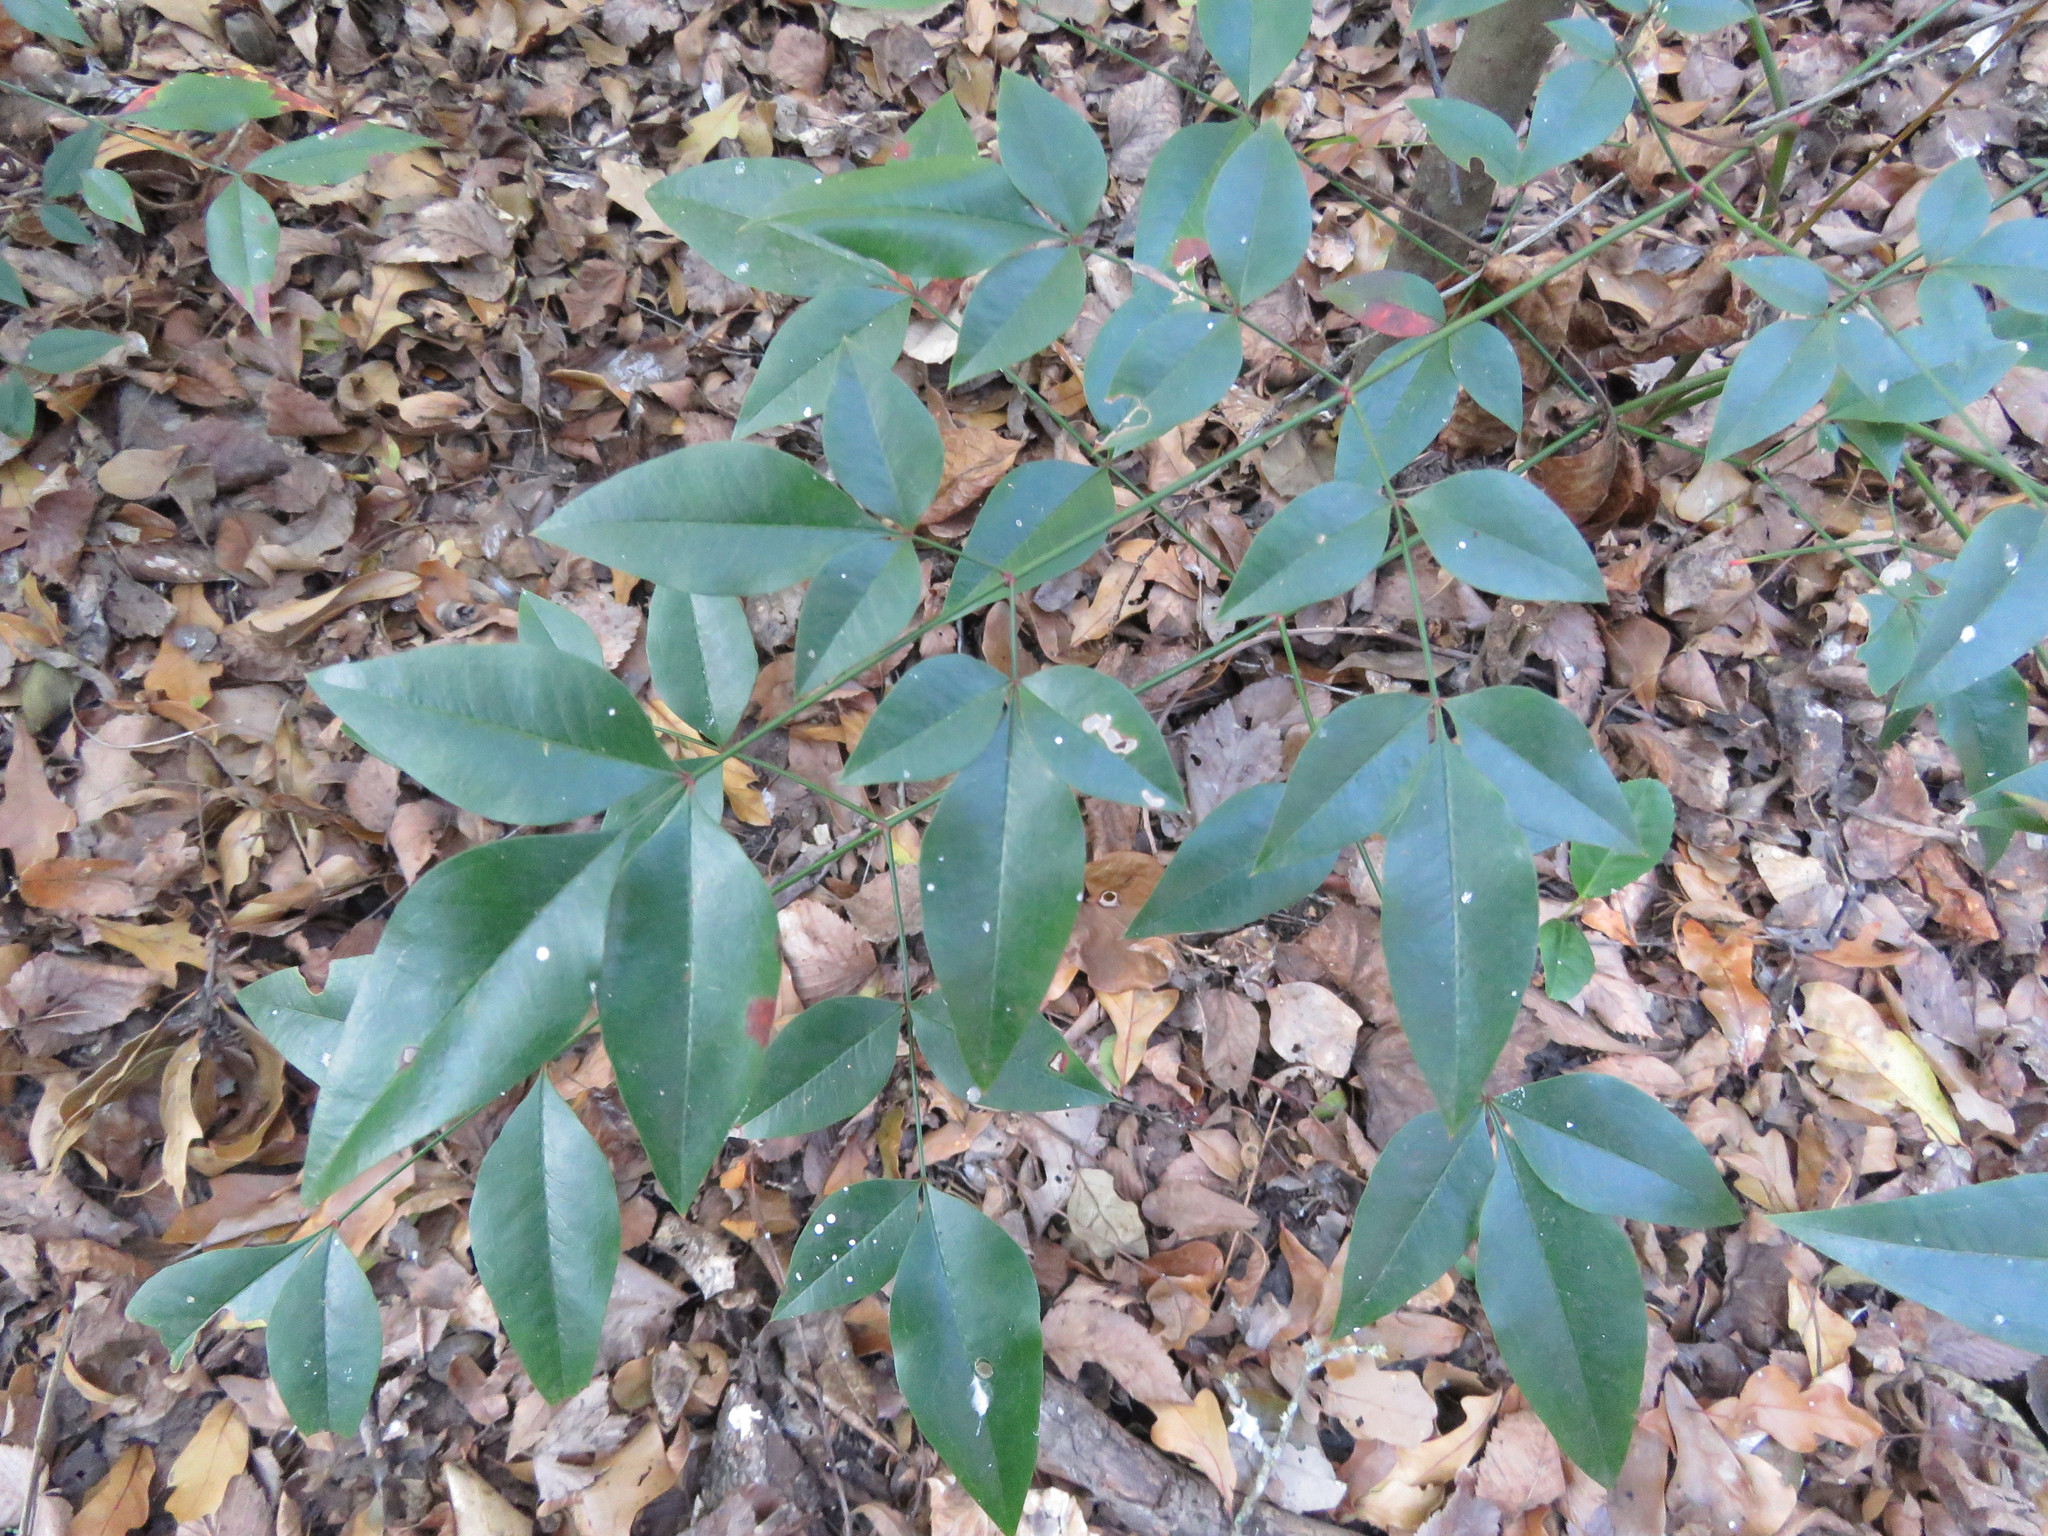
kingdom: Plantae
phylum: Tracheophyta
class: Magnoliopsida
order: Ranunculales
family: Berberidaceae
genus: Nandina
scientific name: Nandina domestica
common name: Sacred bamboo
